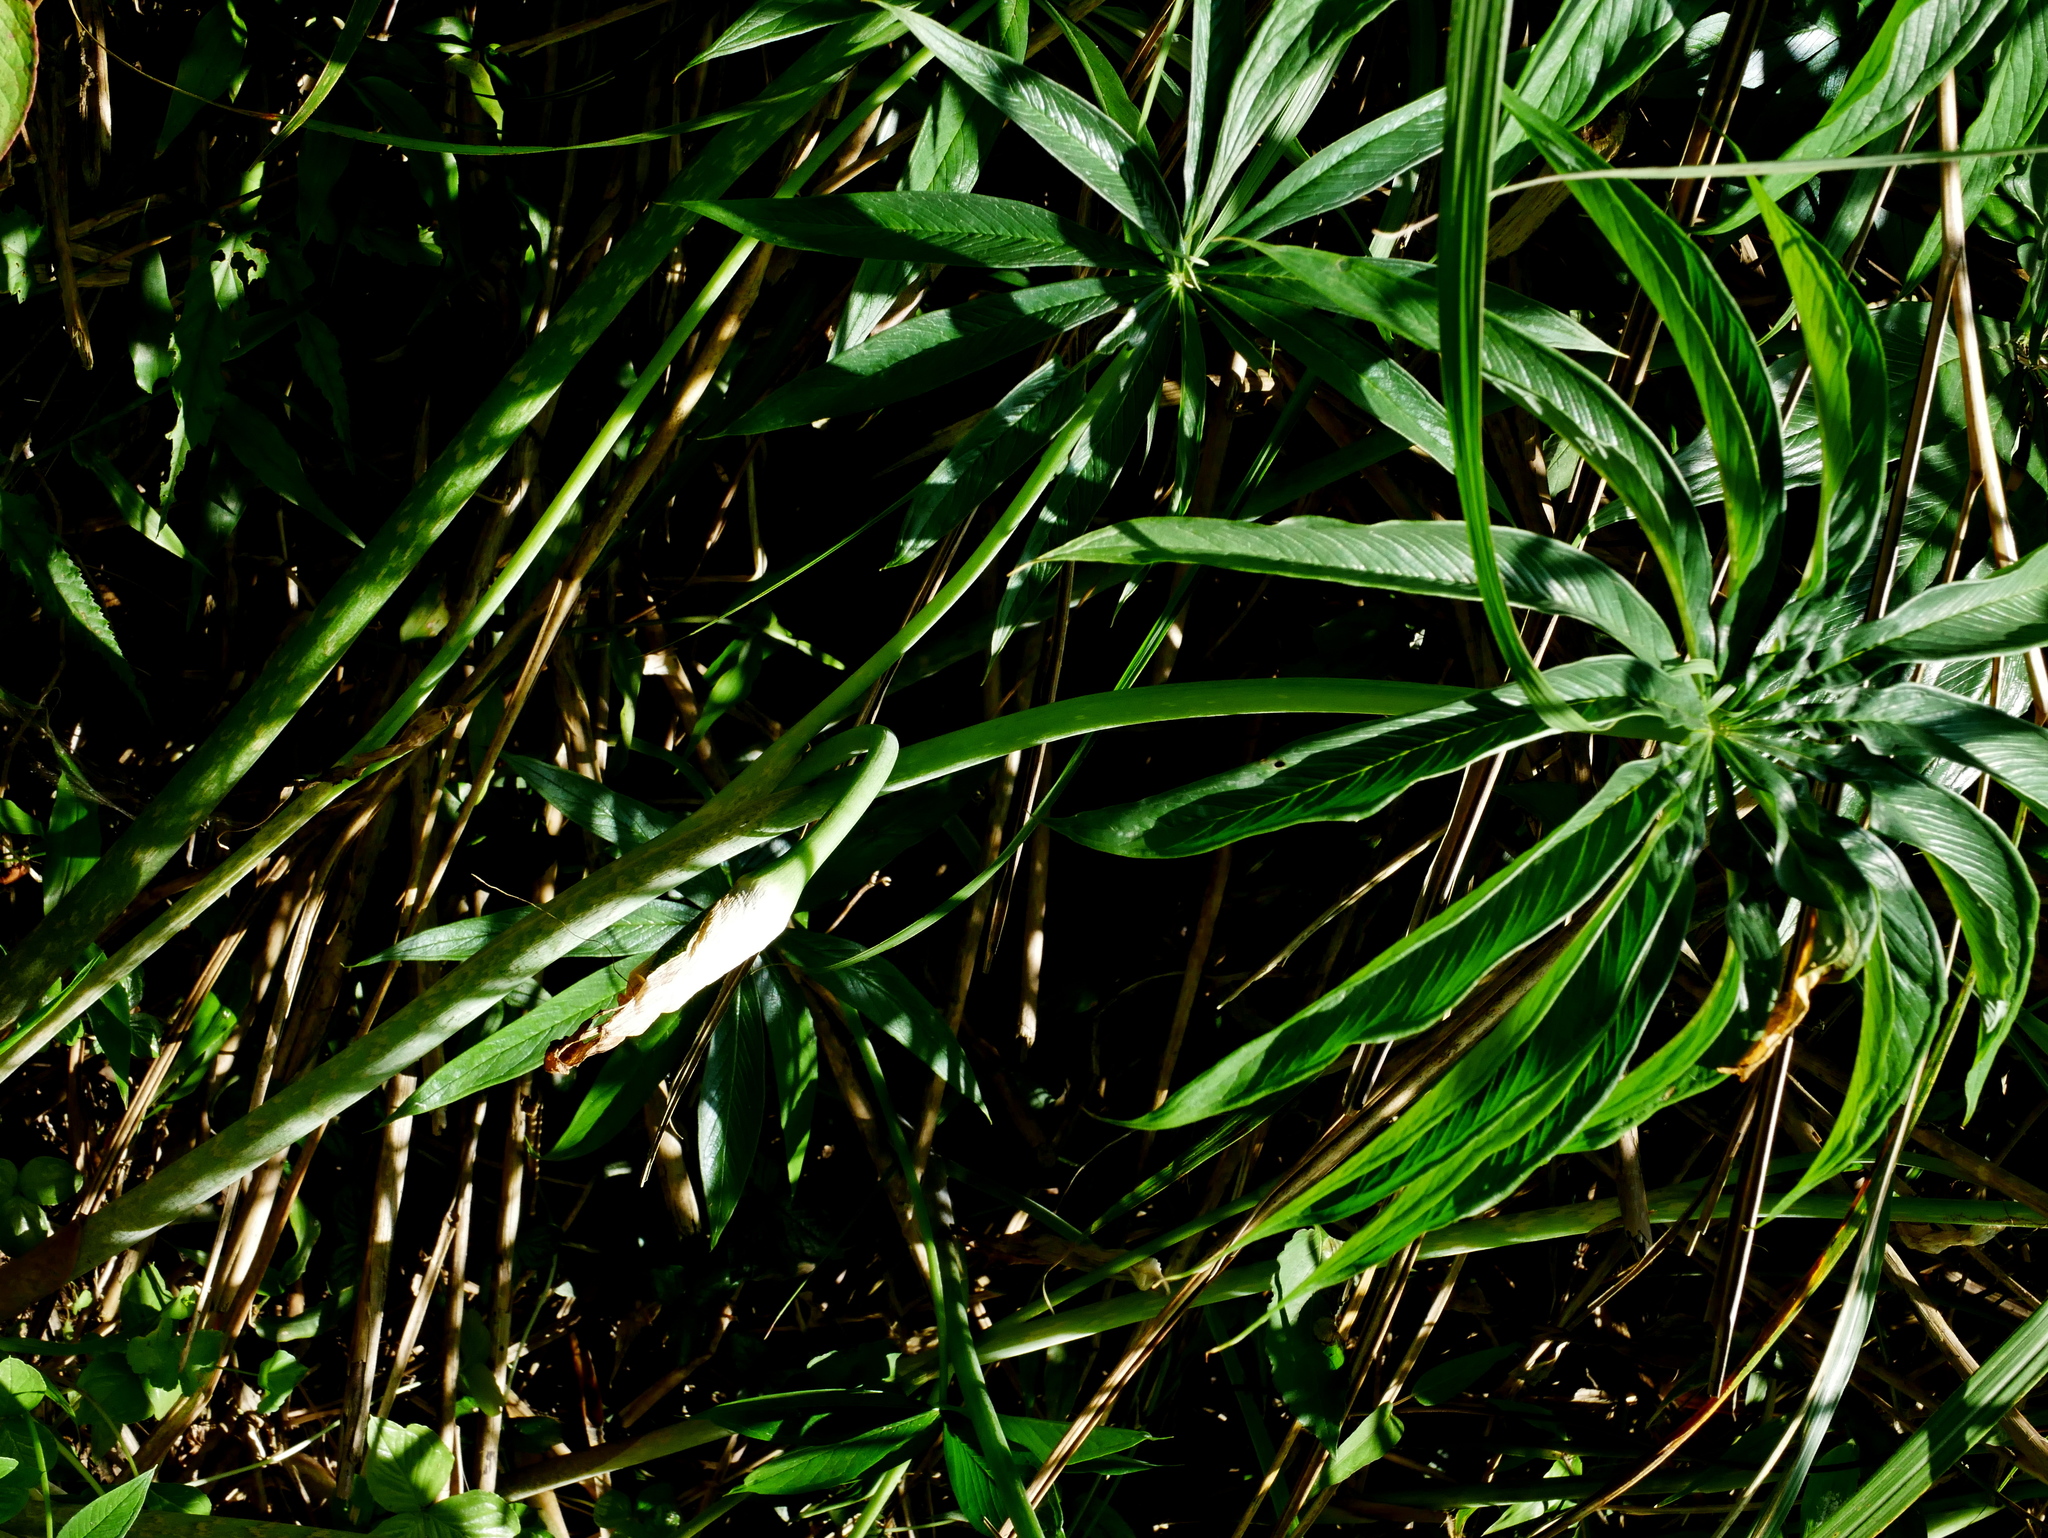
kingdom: Plantae
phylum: Tracheophyta
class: Liliopsida
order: Alismatales
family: Araceae
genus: Arisaema
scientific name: Arisaema consanguineum
